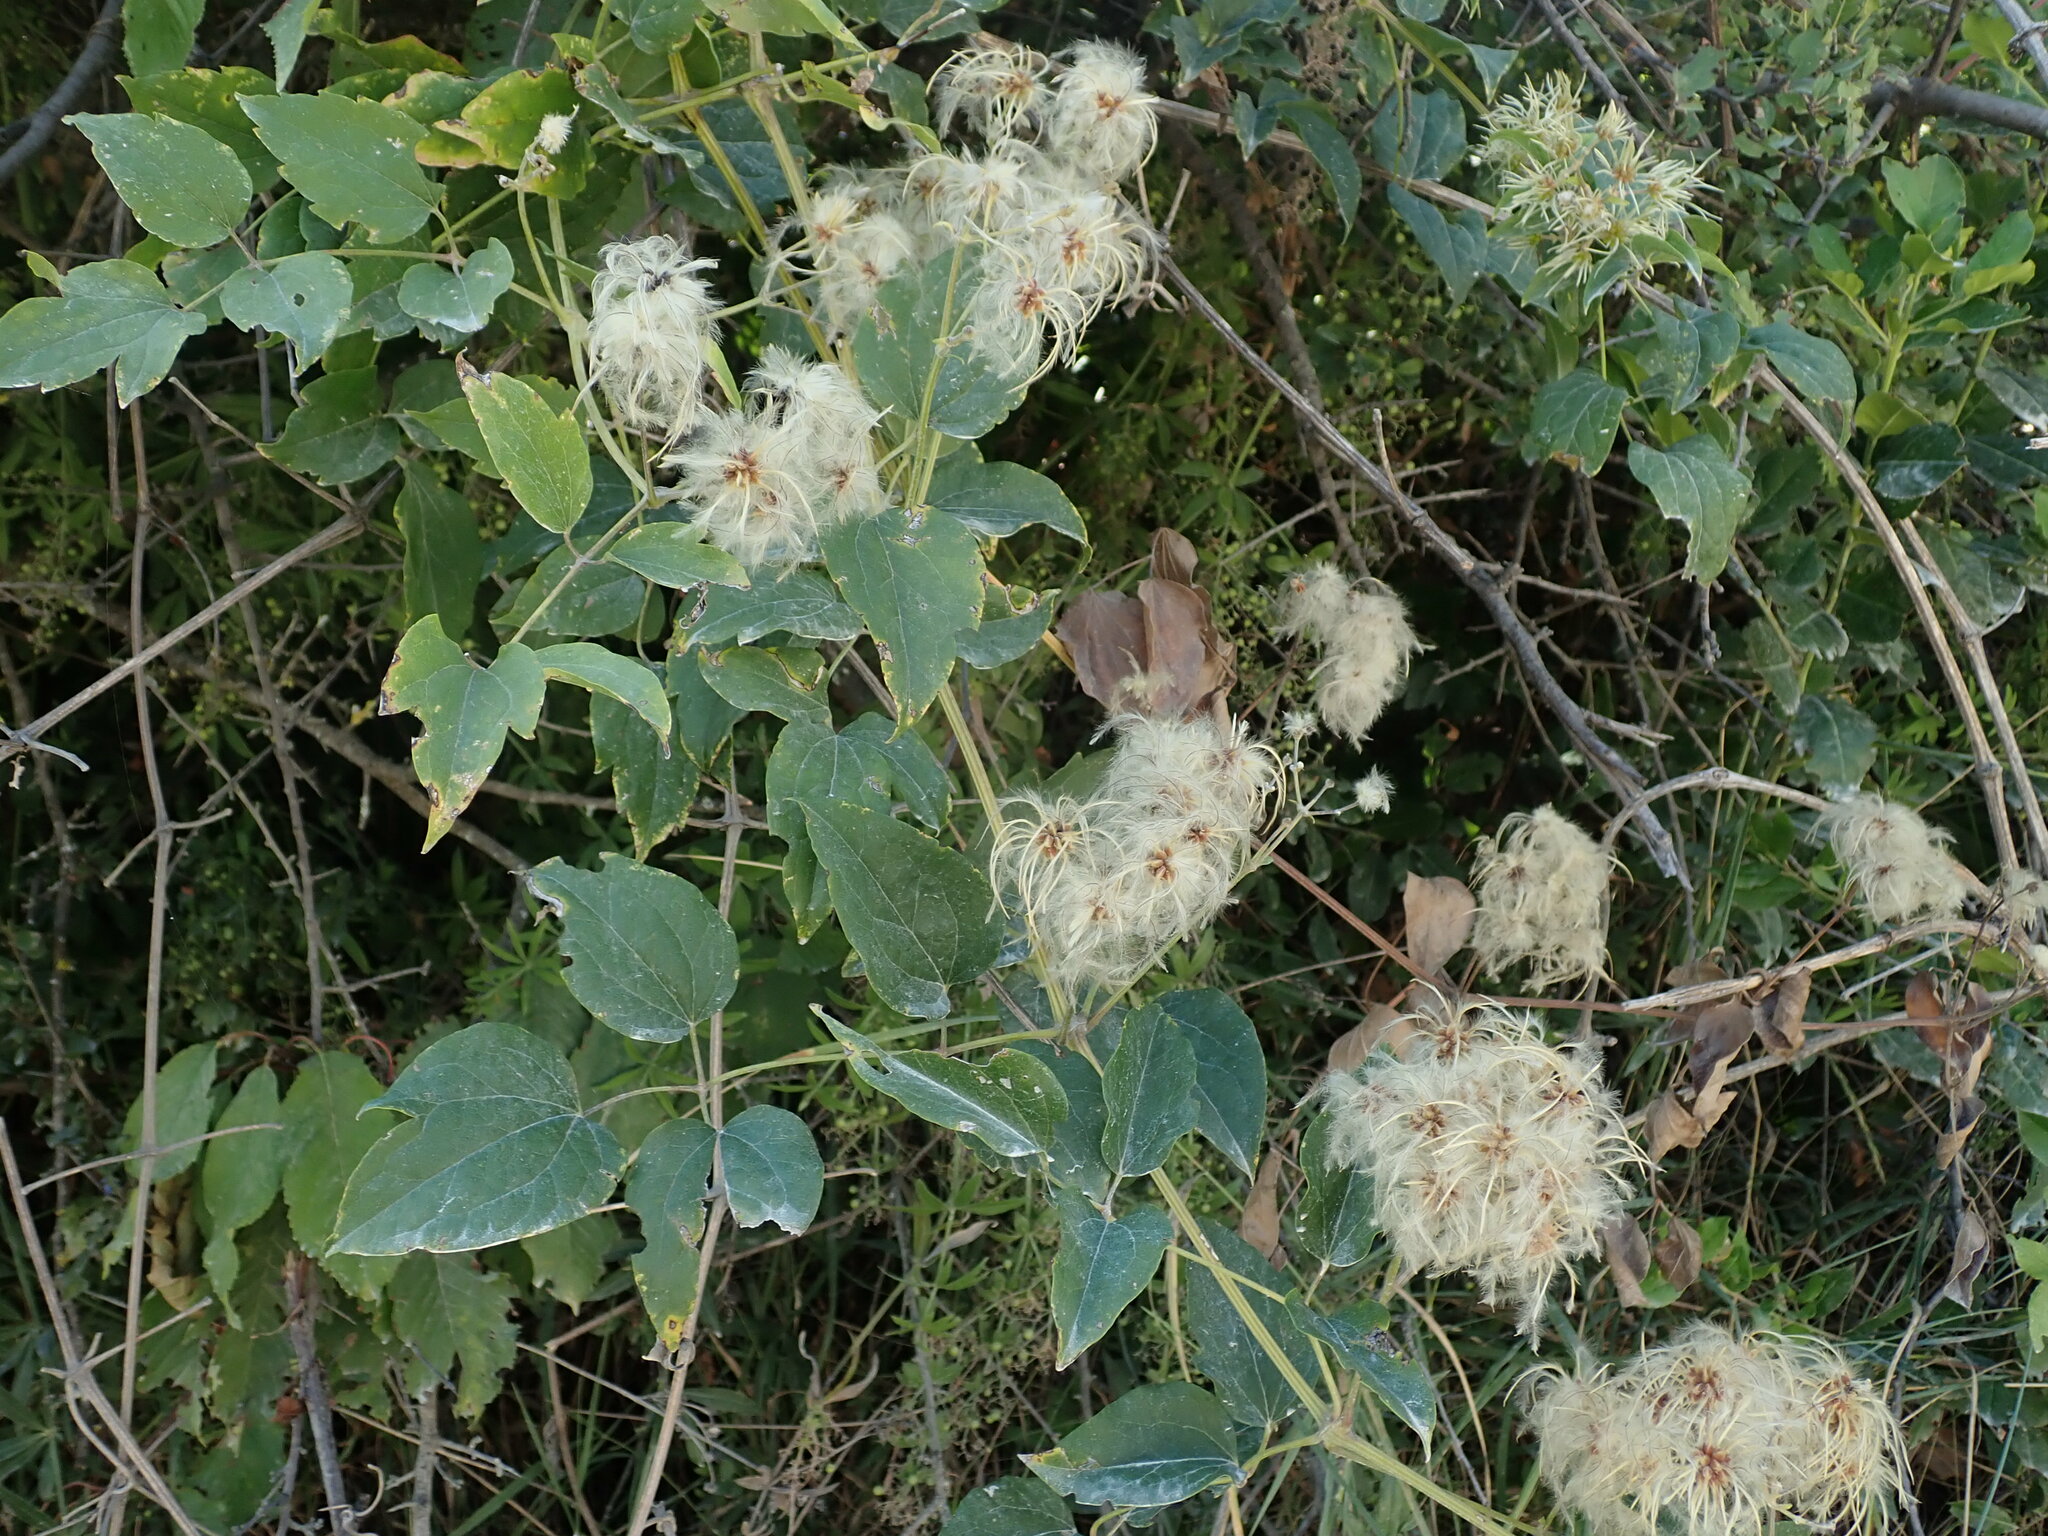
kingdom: Plantae
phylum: Tracheophyta
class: Magnoliopsida
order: Ranunculales
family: Ranunculaceae
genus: Clematis
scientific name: Clematis vitalba
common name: Evergreen clematis
